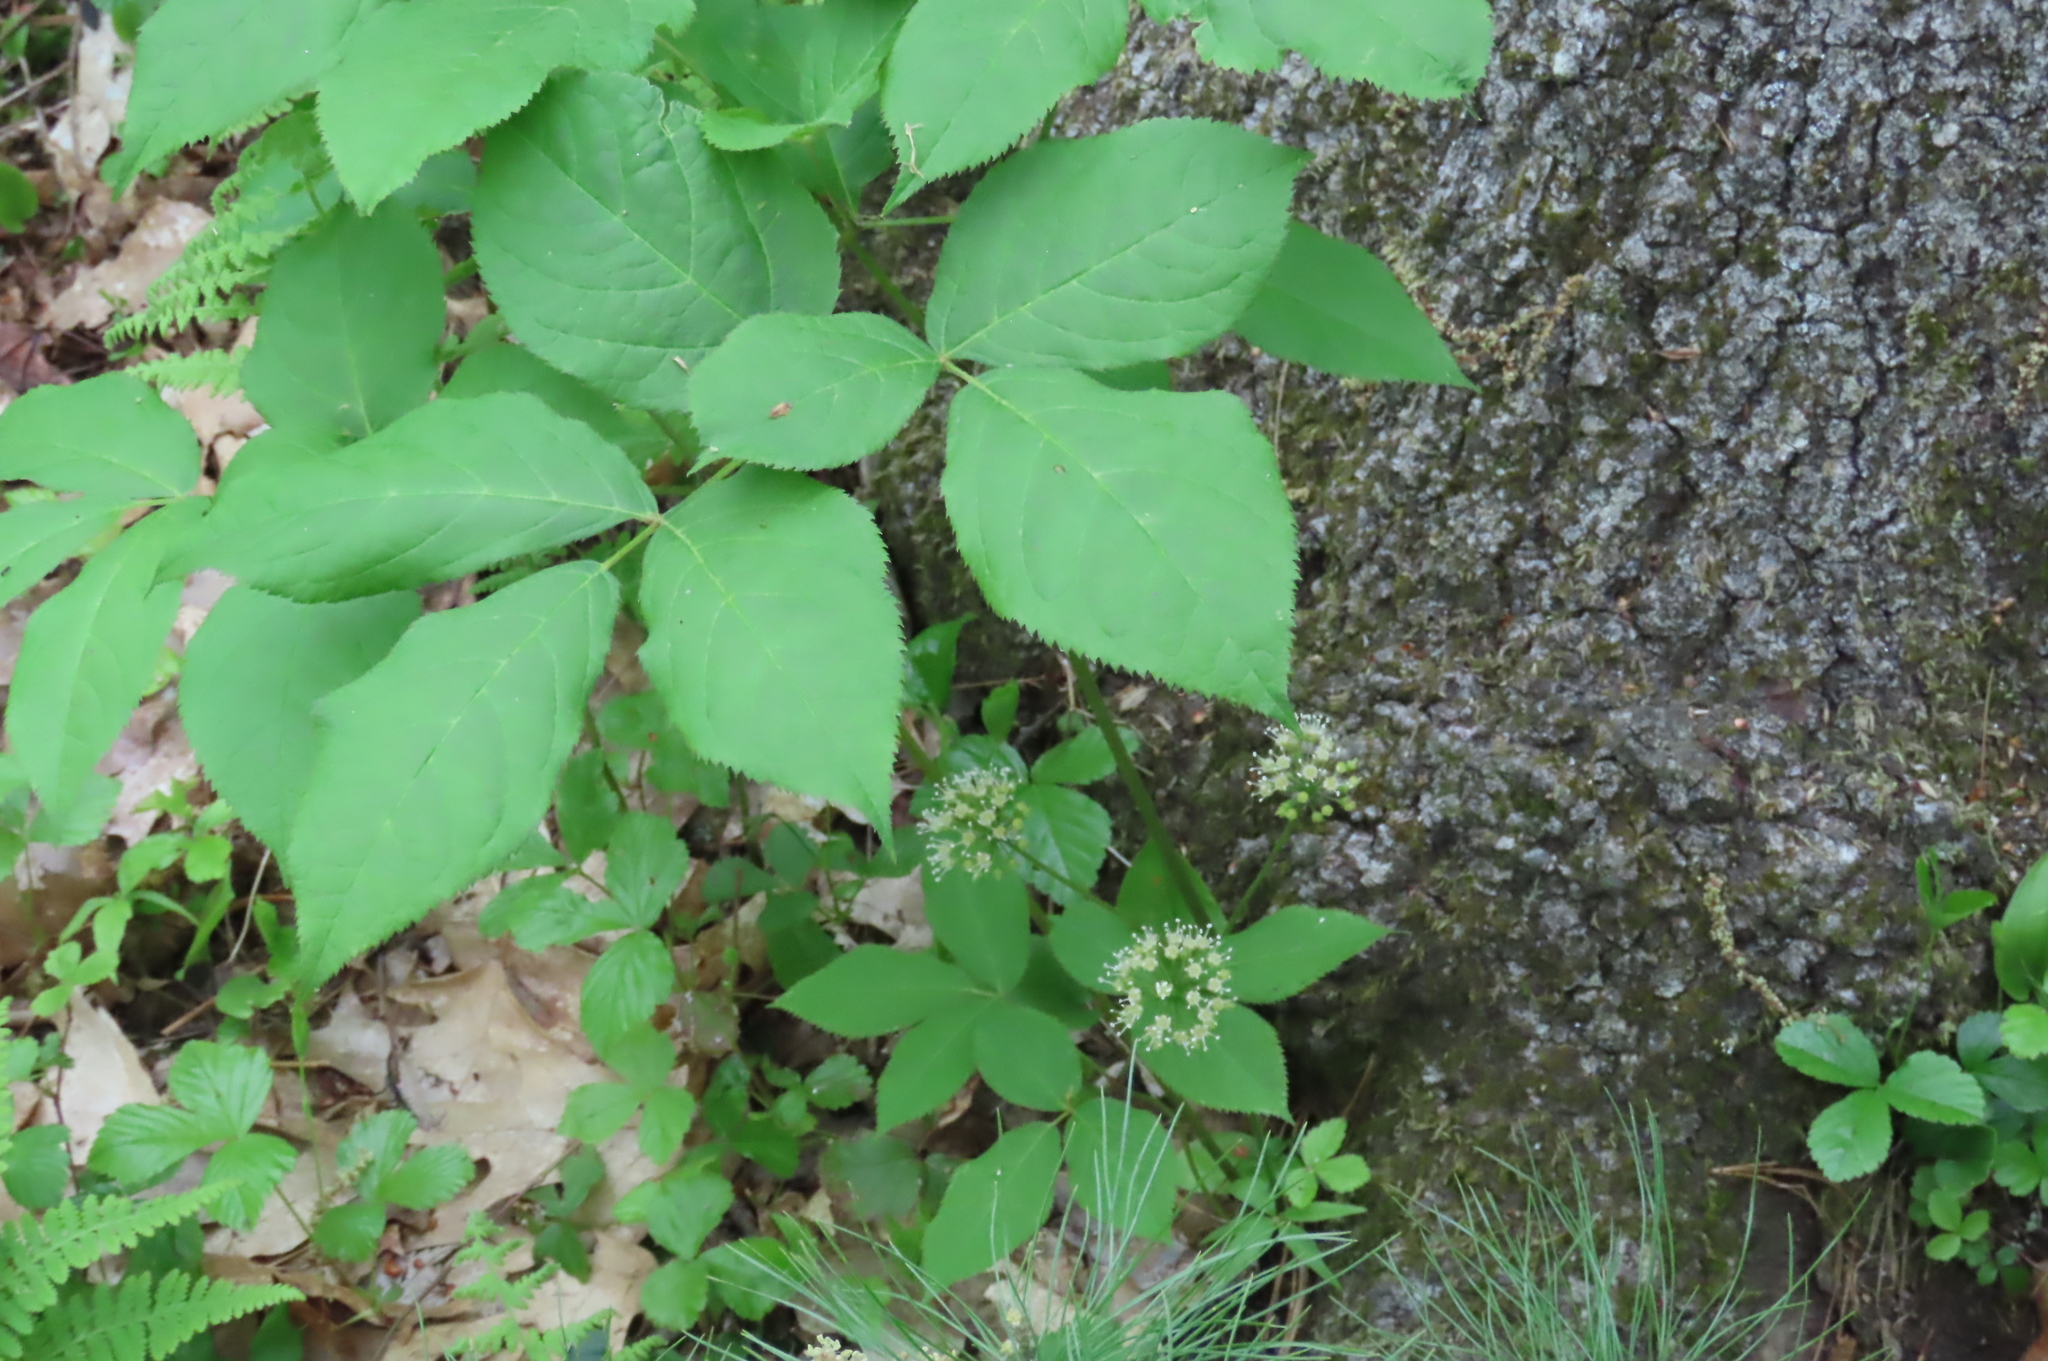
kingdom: Plantae
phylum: Tracheophyta
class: Magnoliopsida
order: Apiales
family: Araliaceae
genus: Aralia
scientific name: Aralia nudicaulis
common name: Wild sarsaparilla
